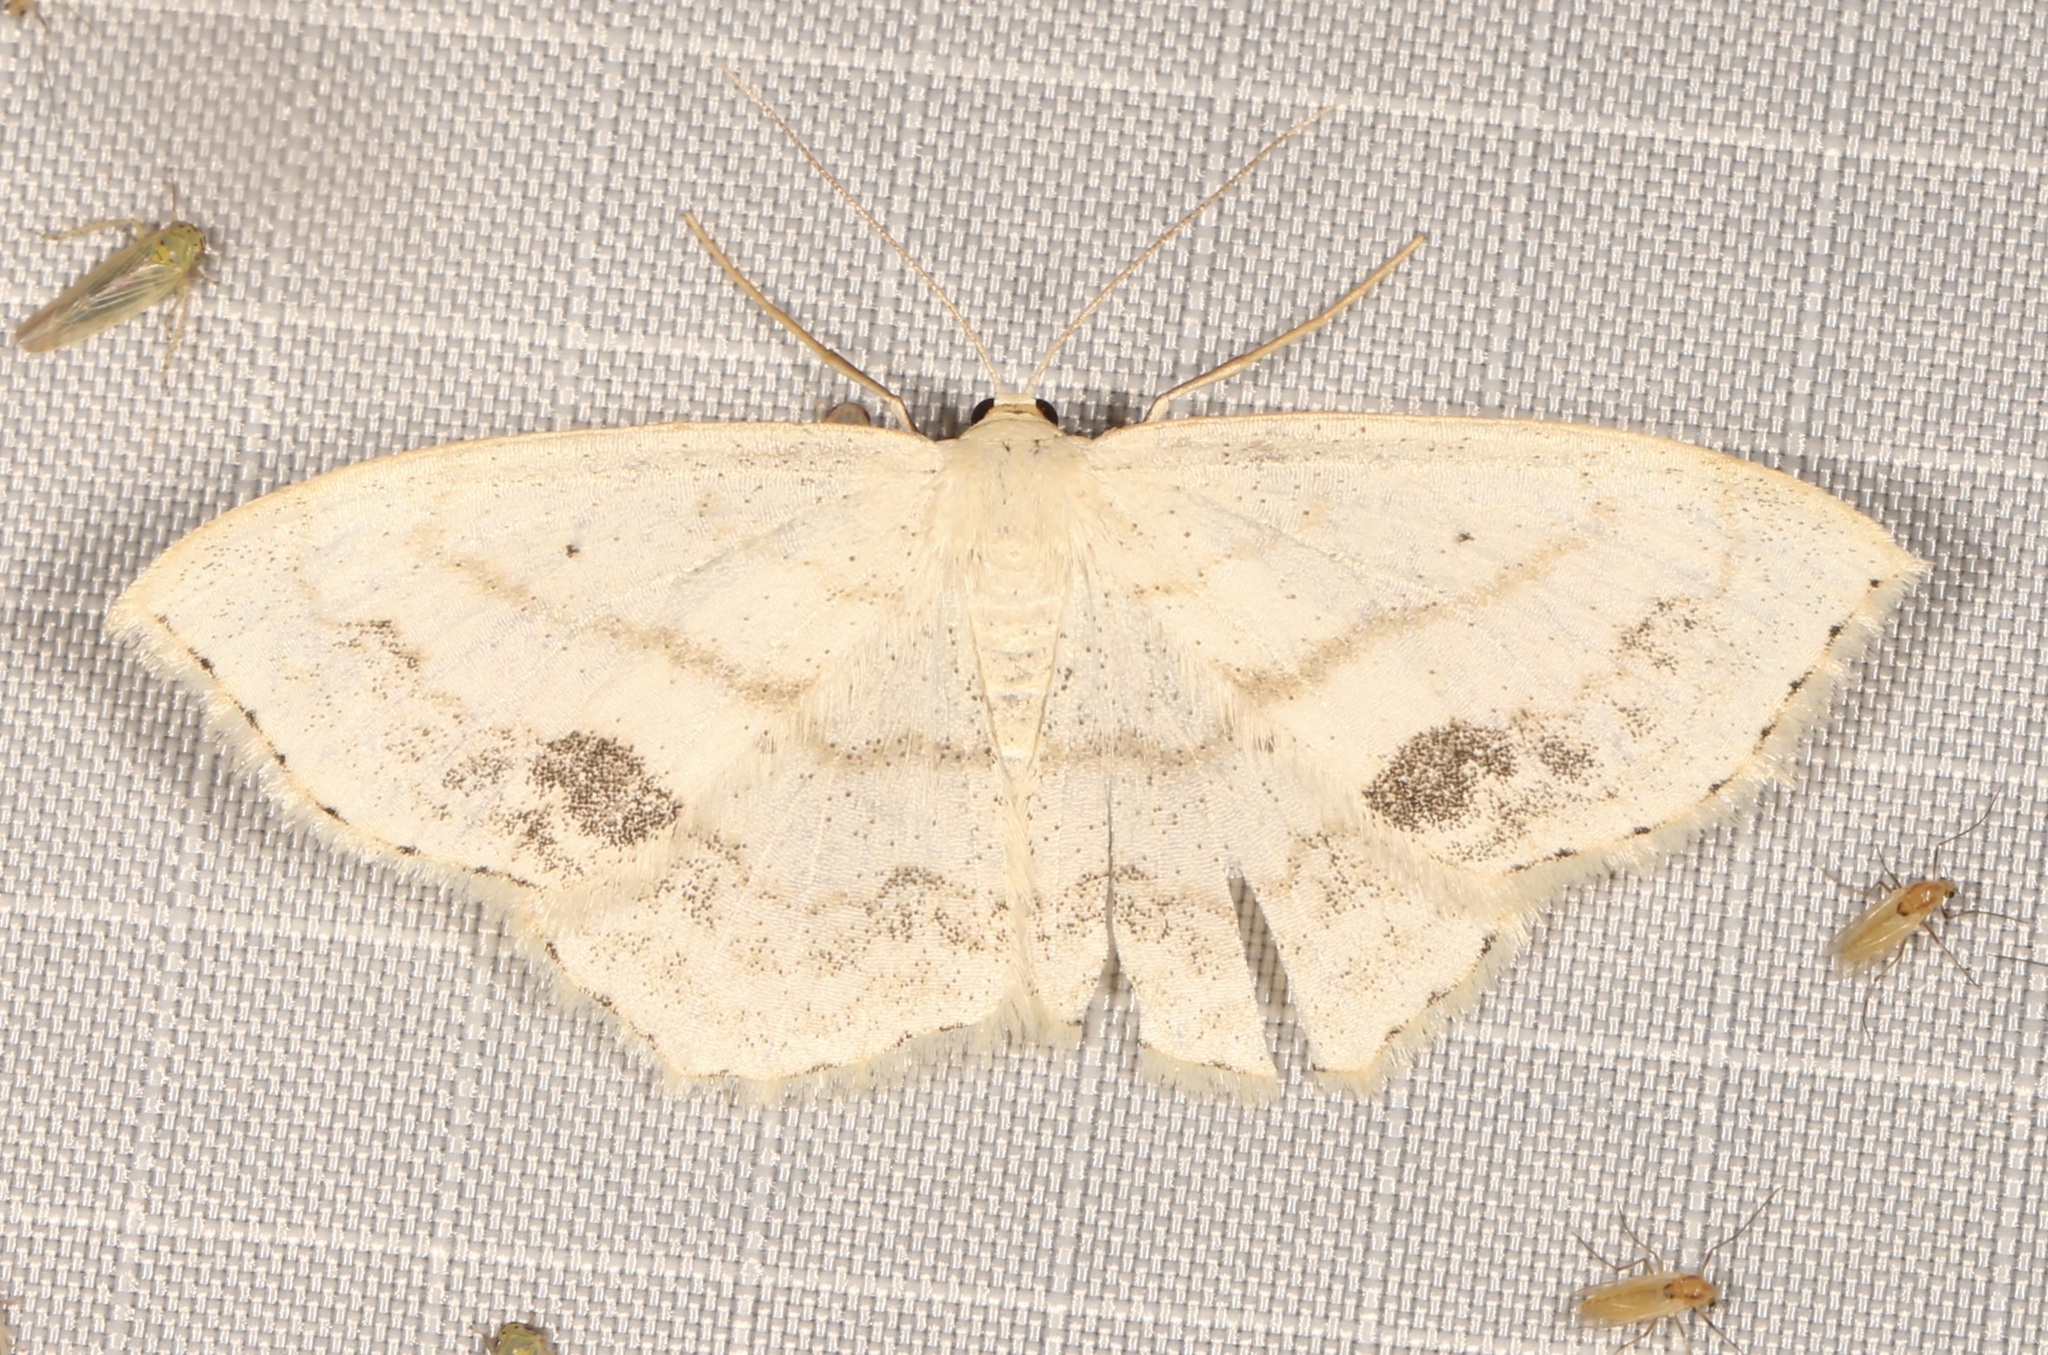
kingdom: Animalia
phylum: Arthropoda
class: Insecta
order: Lepidoptera
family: Geometridae
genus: Scopula
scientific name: Scopula limboundata
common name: Large lace border
